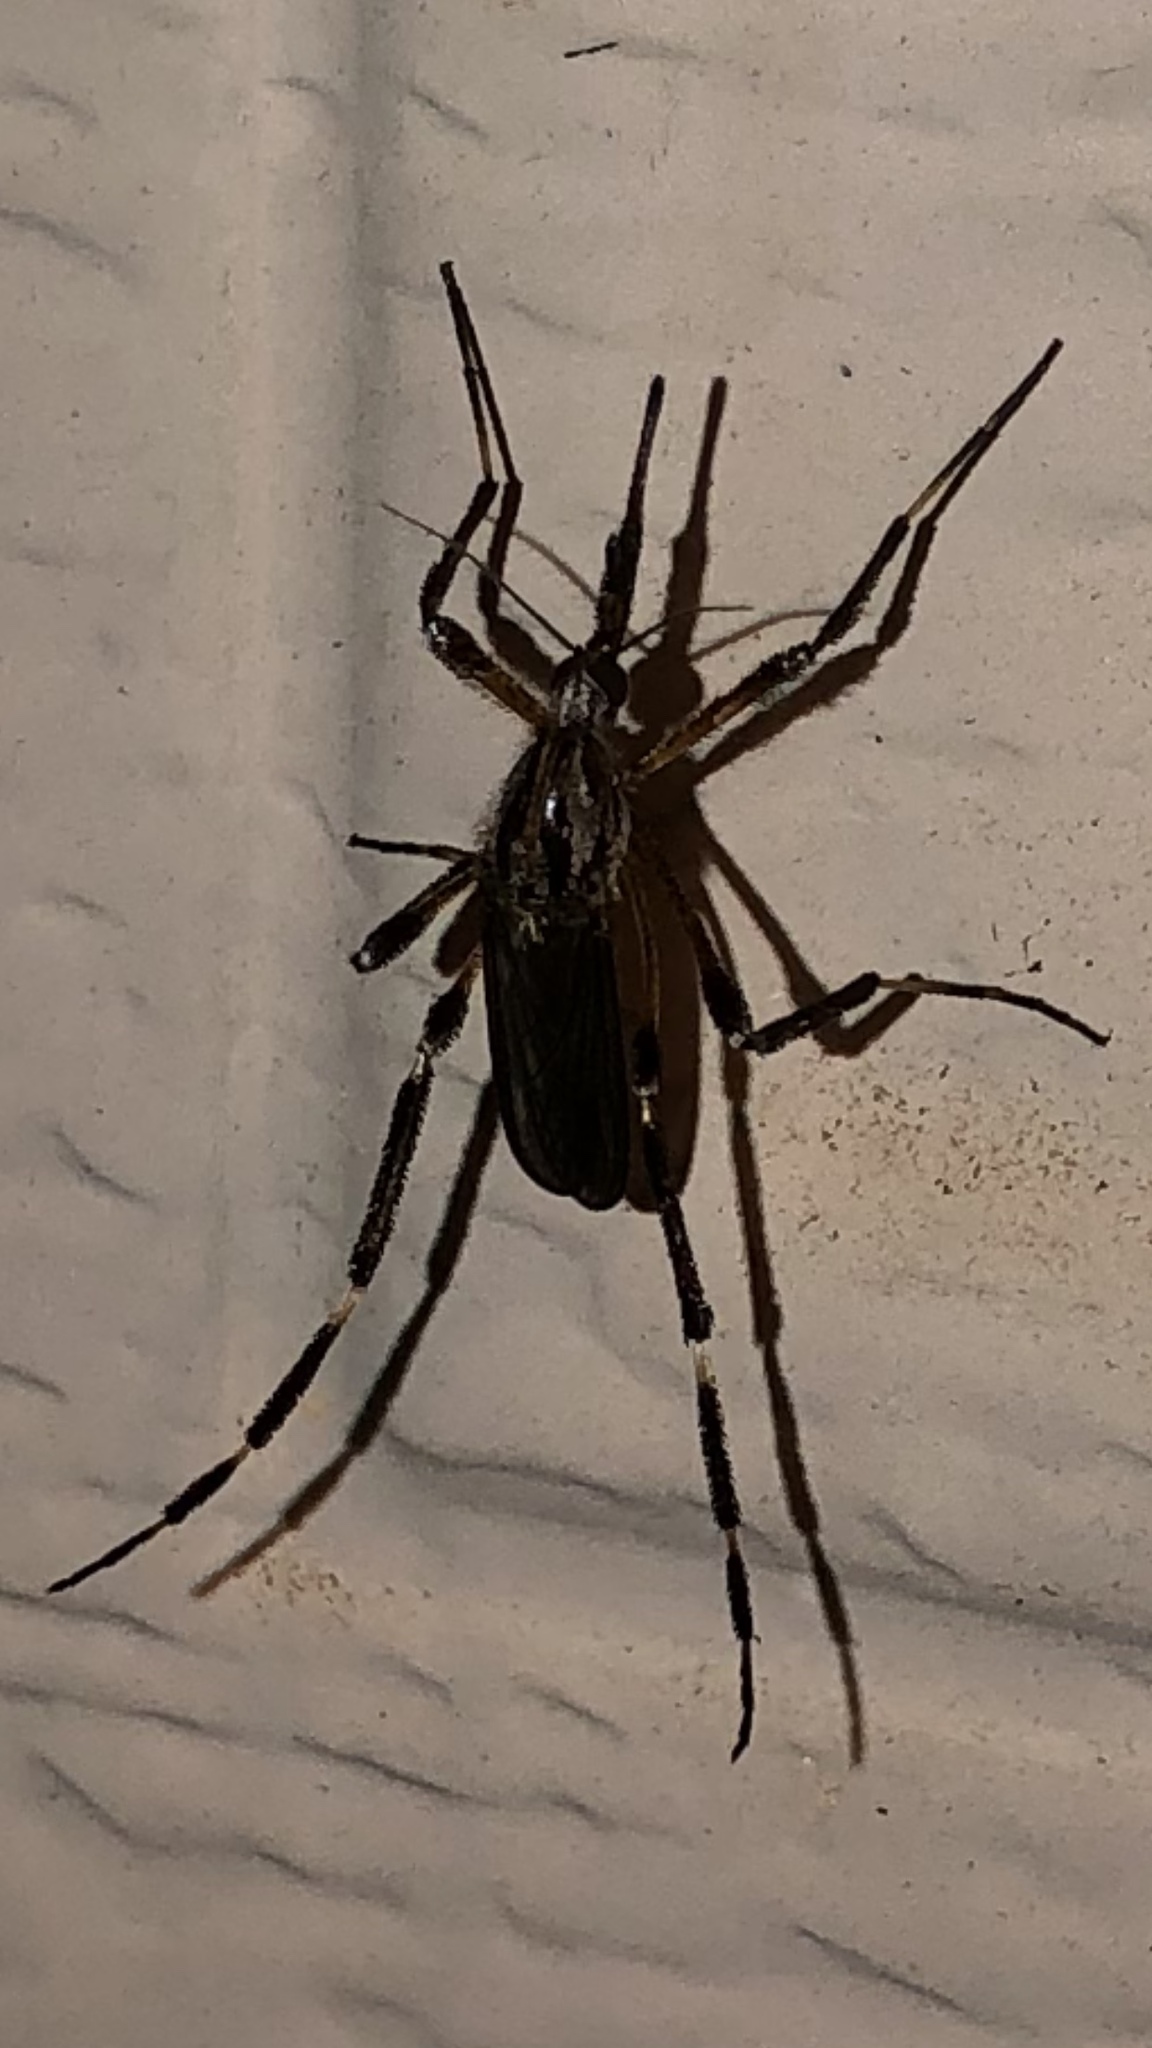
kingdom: Animalia
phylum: Arthropoda
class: Insecta
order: Diptera
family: Culicidae
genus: Psorophora
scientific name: Psorophora ciliata
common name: Gallinipper
